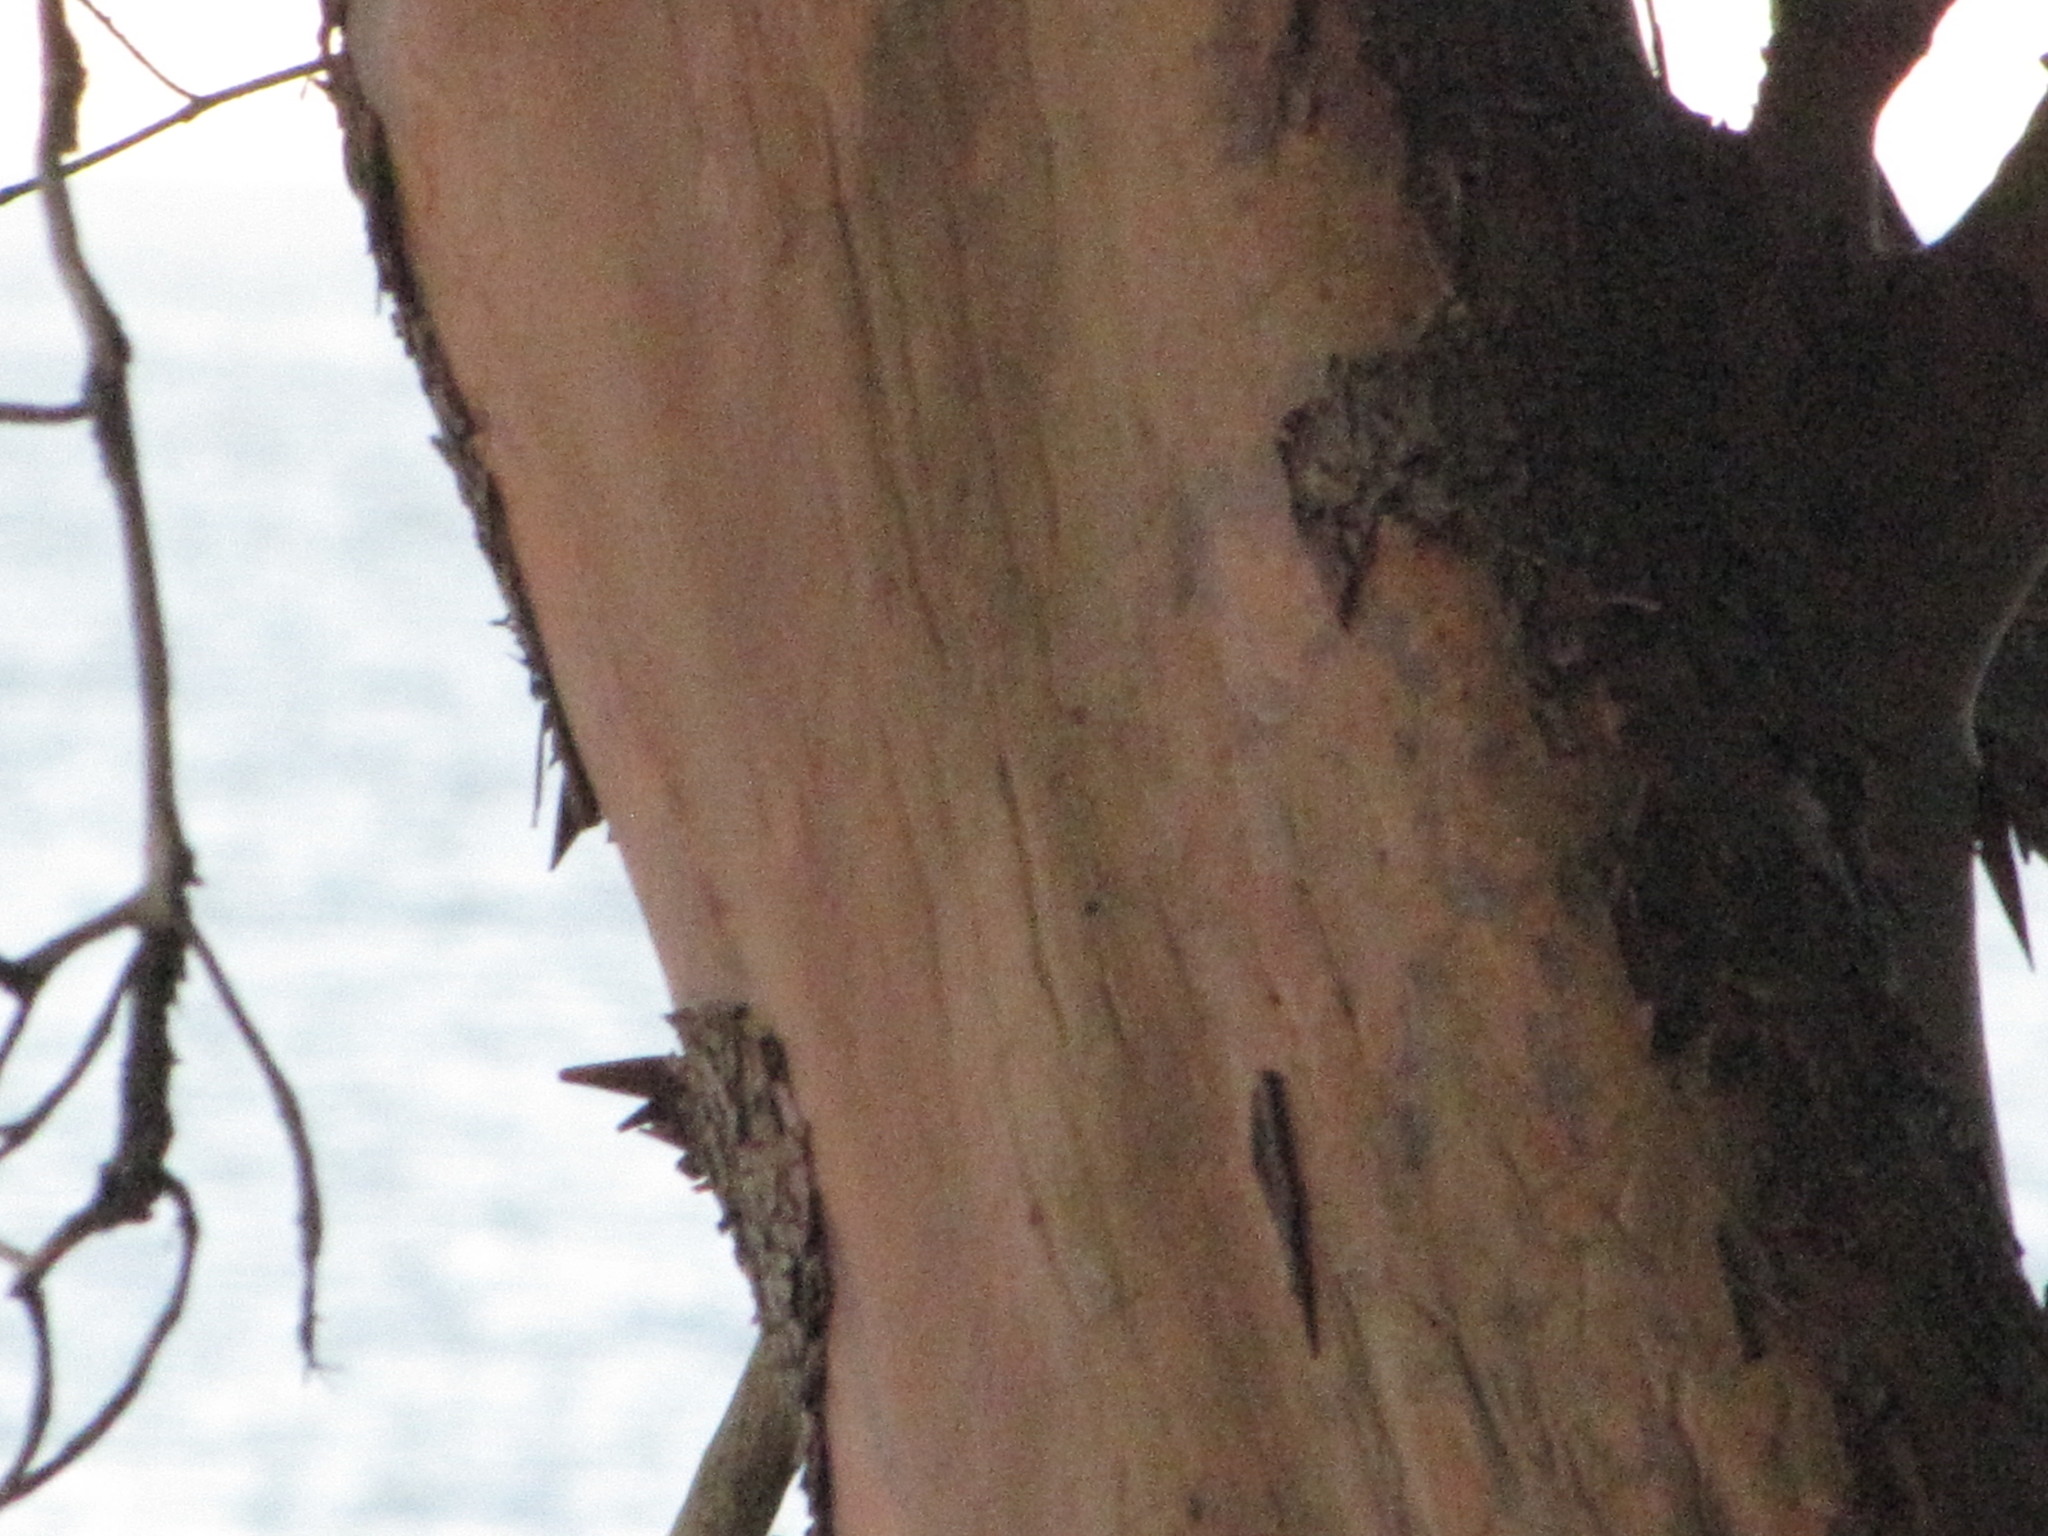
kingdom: Plantae
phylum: Tracheophyta
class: Magnoliopsida
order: Ericales
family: Ericaceae
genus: Arbutus
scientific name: Arbutus menziesii
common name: Pacific madrone
